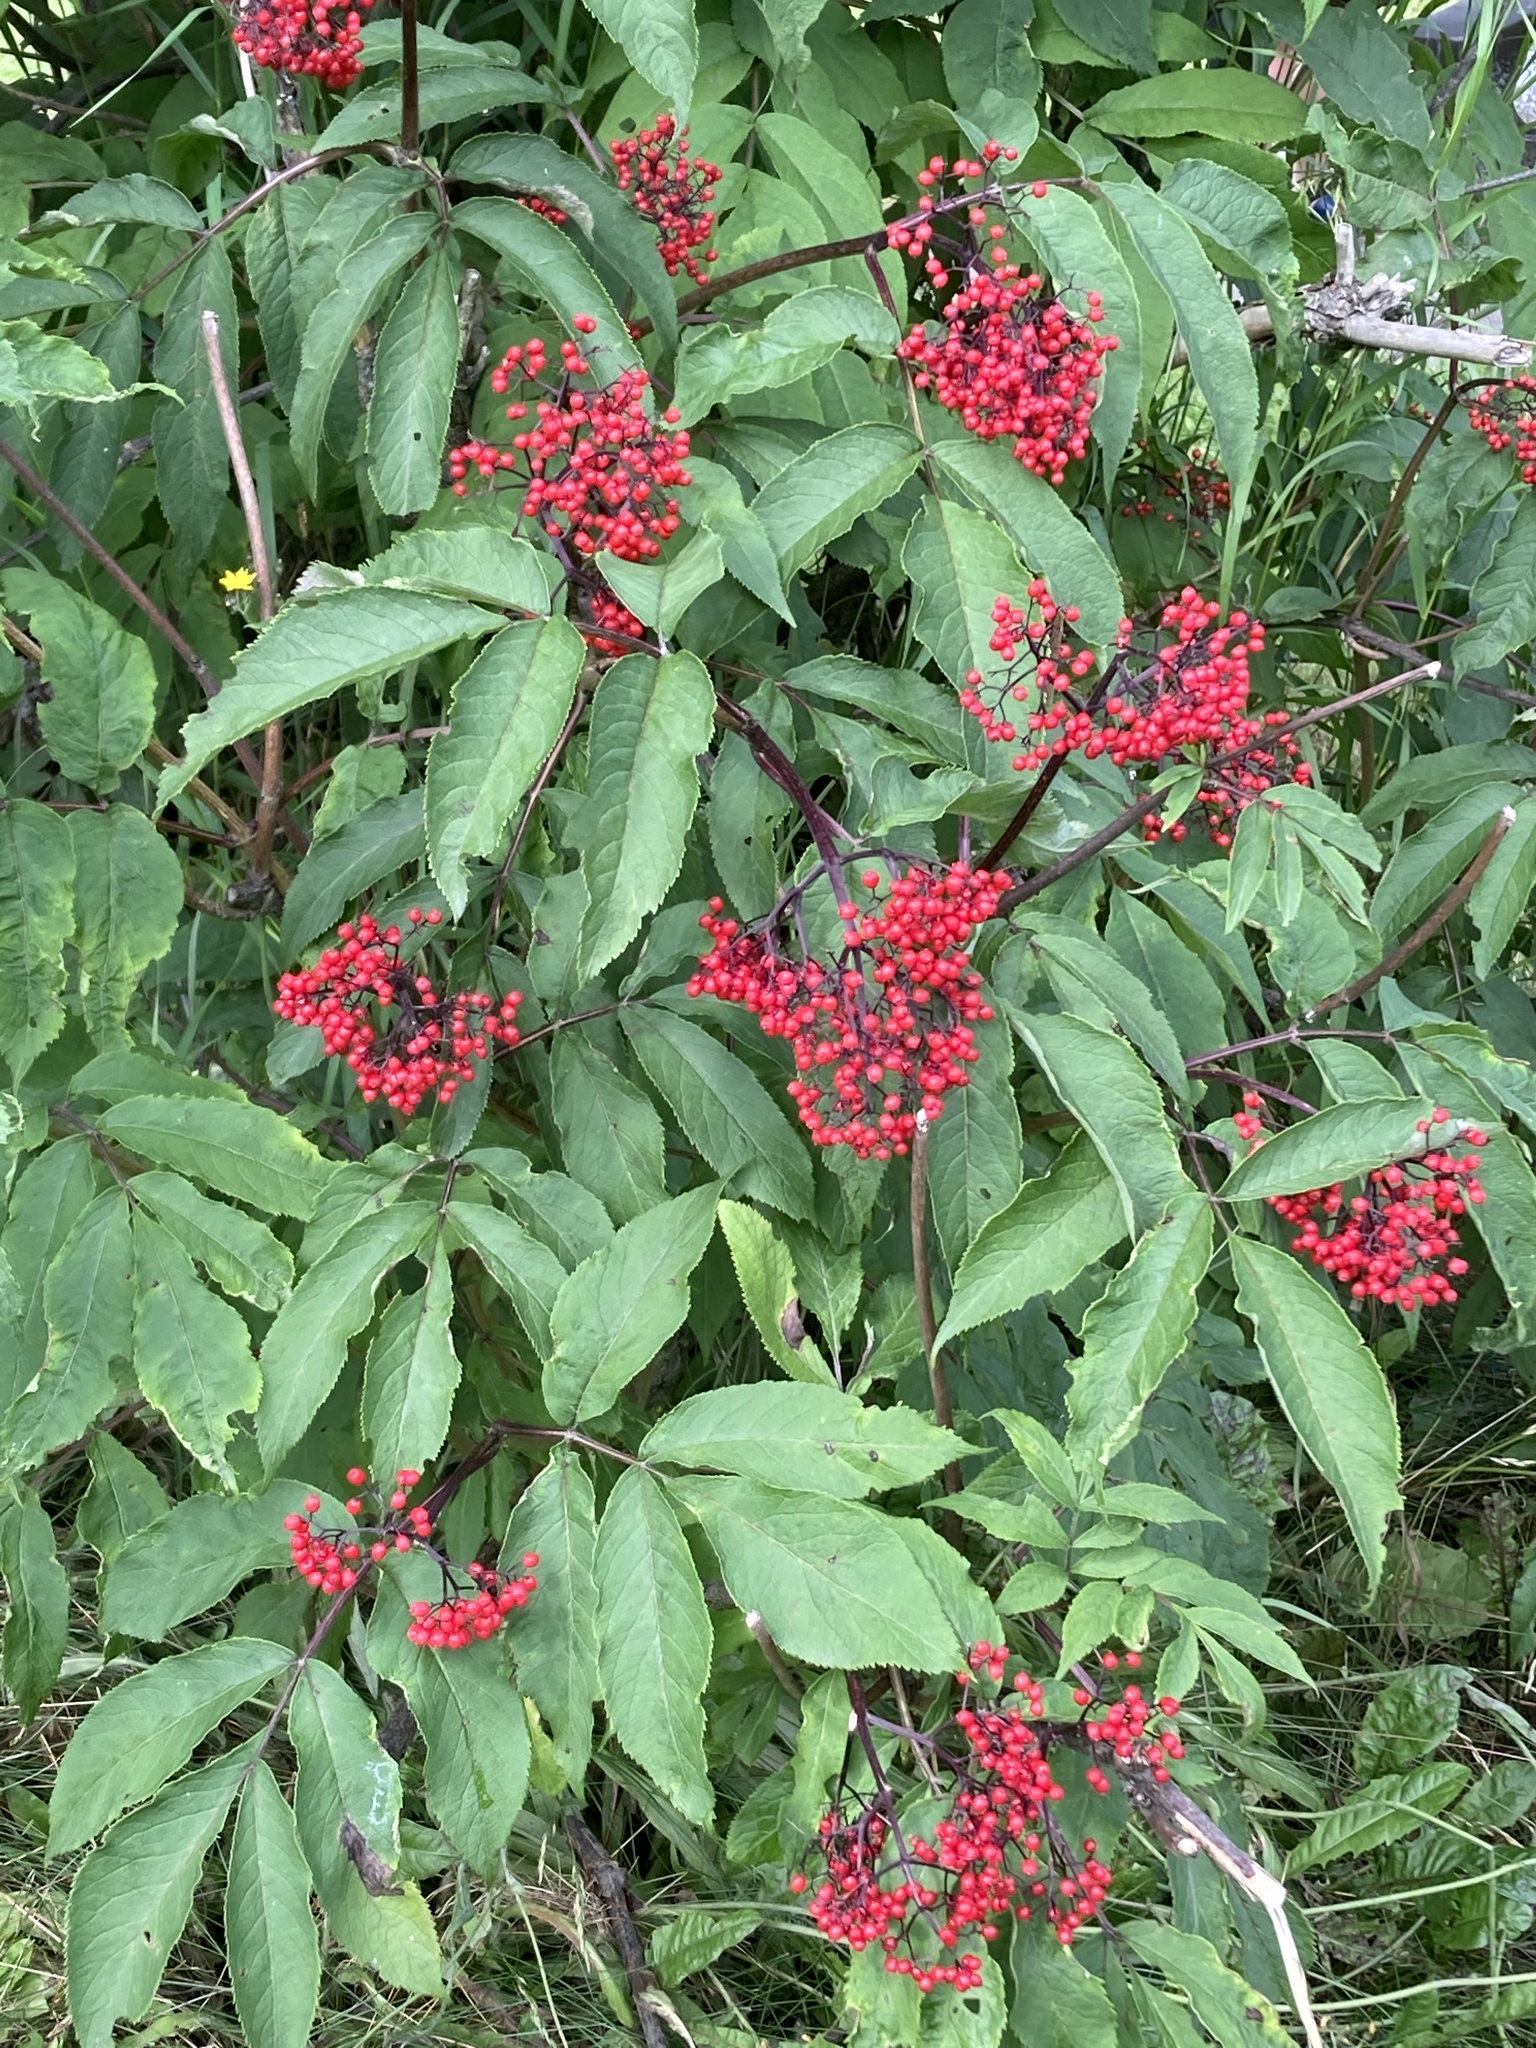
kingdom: Plantae
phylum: Tracheophyta
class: Magnoliopsida
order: Dipsacales
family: Viburnaceae
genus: Sambucus
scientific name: Sambucus racemosa
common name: Red-berried elder
